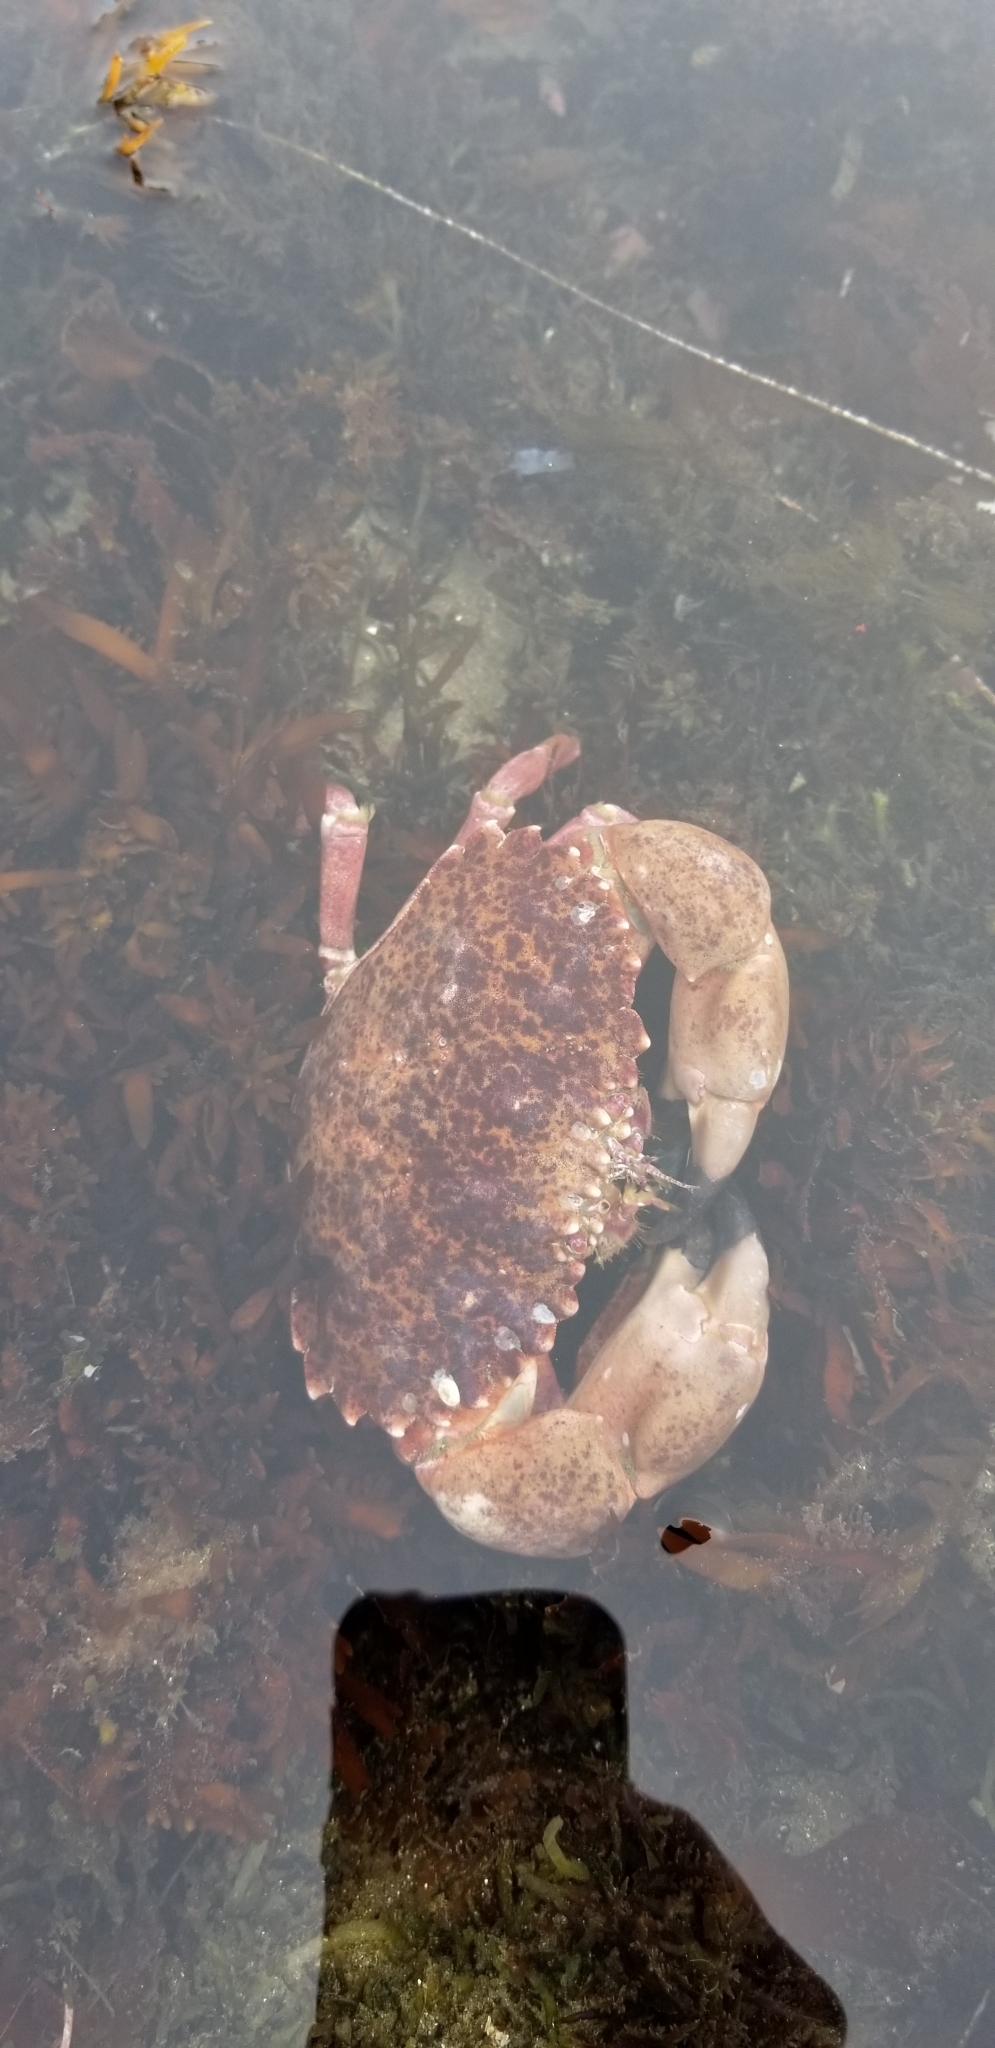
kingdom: Animalia
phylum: Arthropoda
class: Malacostraca
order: Decapoda
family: Cancridae
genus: Romaleon
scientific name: Romaleon antennarium
